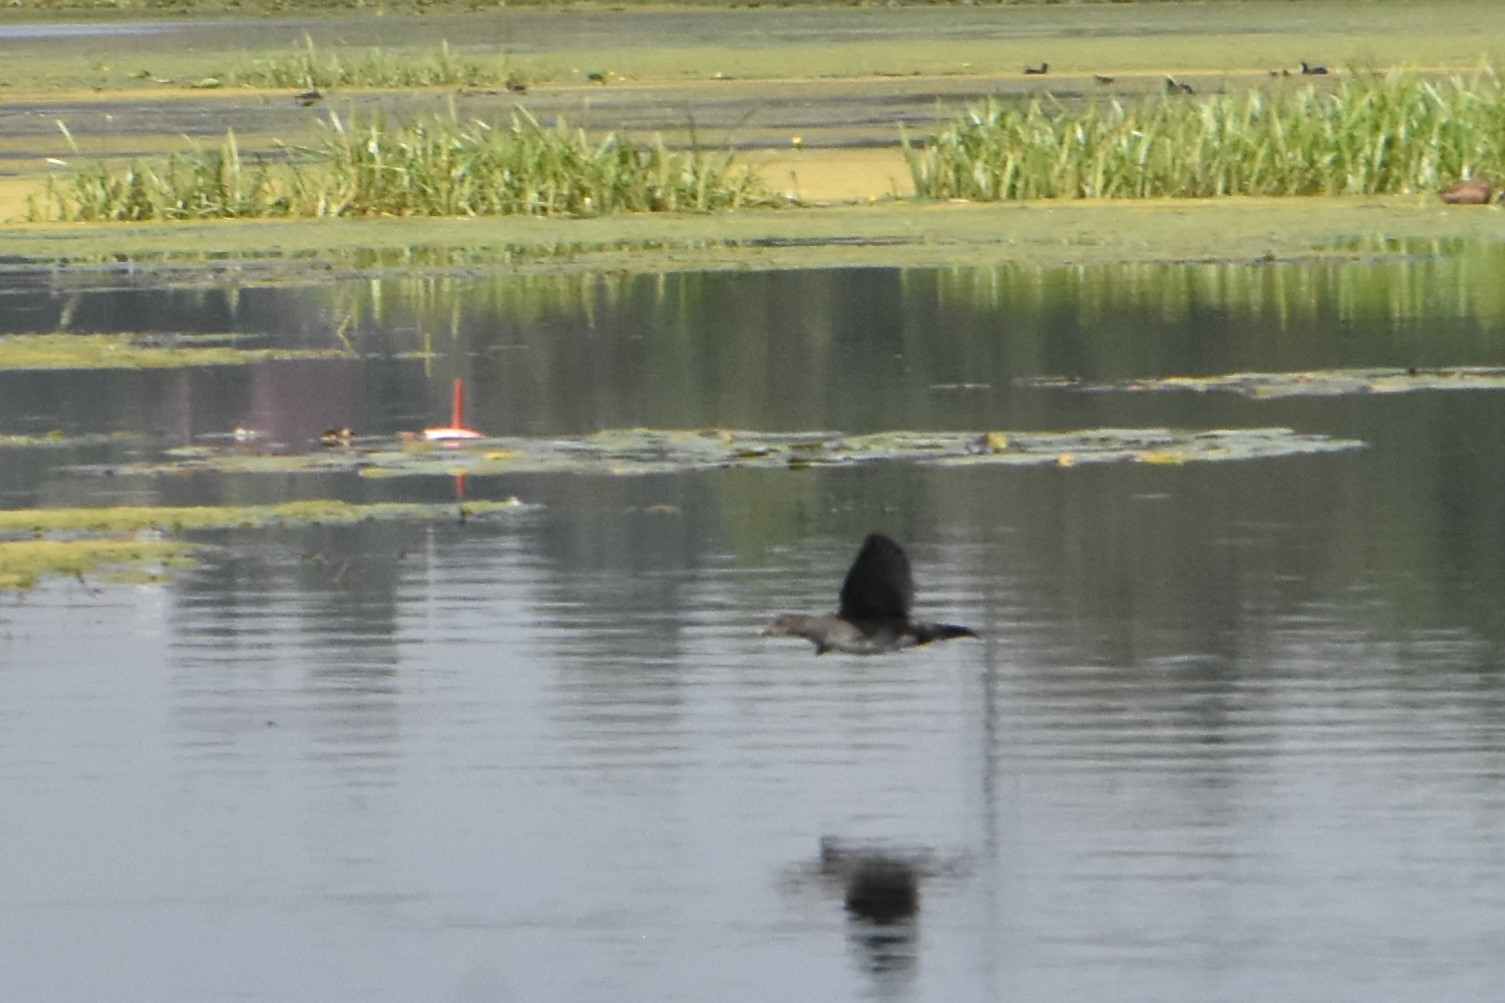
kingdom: Animalia
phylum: Chordata
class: Aves
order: Gruiformes
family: Rallidae
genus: Gallinula
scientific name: Gallinula chloropus
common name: Common moorhen
